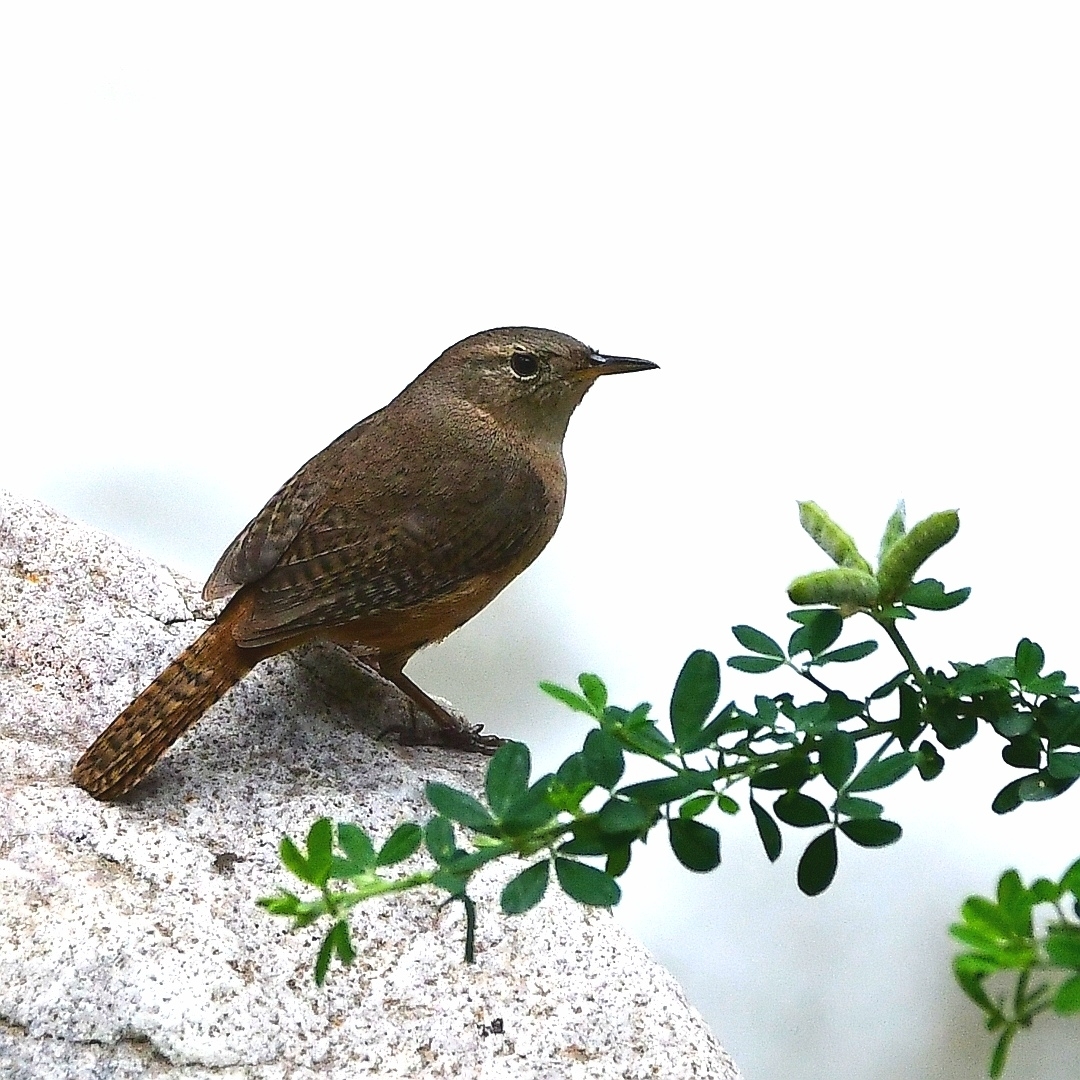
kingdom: Animalia
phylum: Chordata
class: Aves
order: Passeriformes
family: Troglodytidae
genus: Troglodytes
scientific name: Troglodytes aedon
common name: House wren
